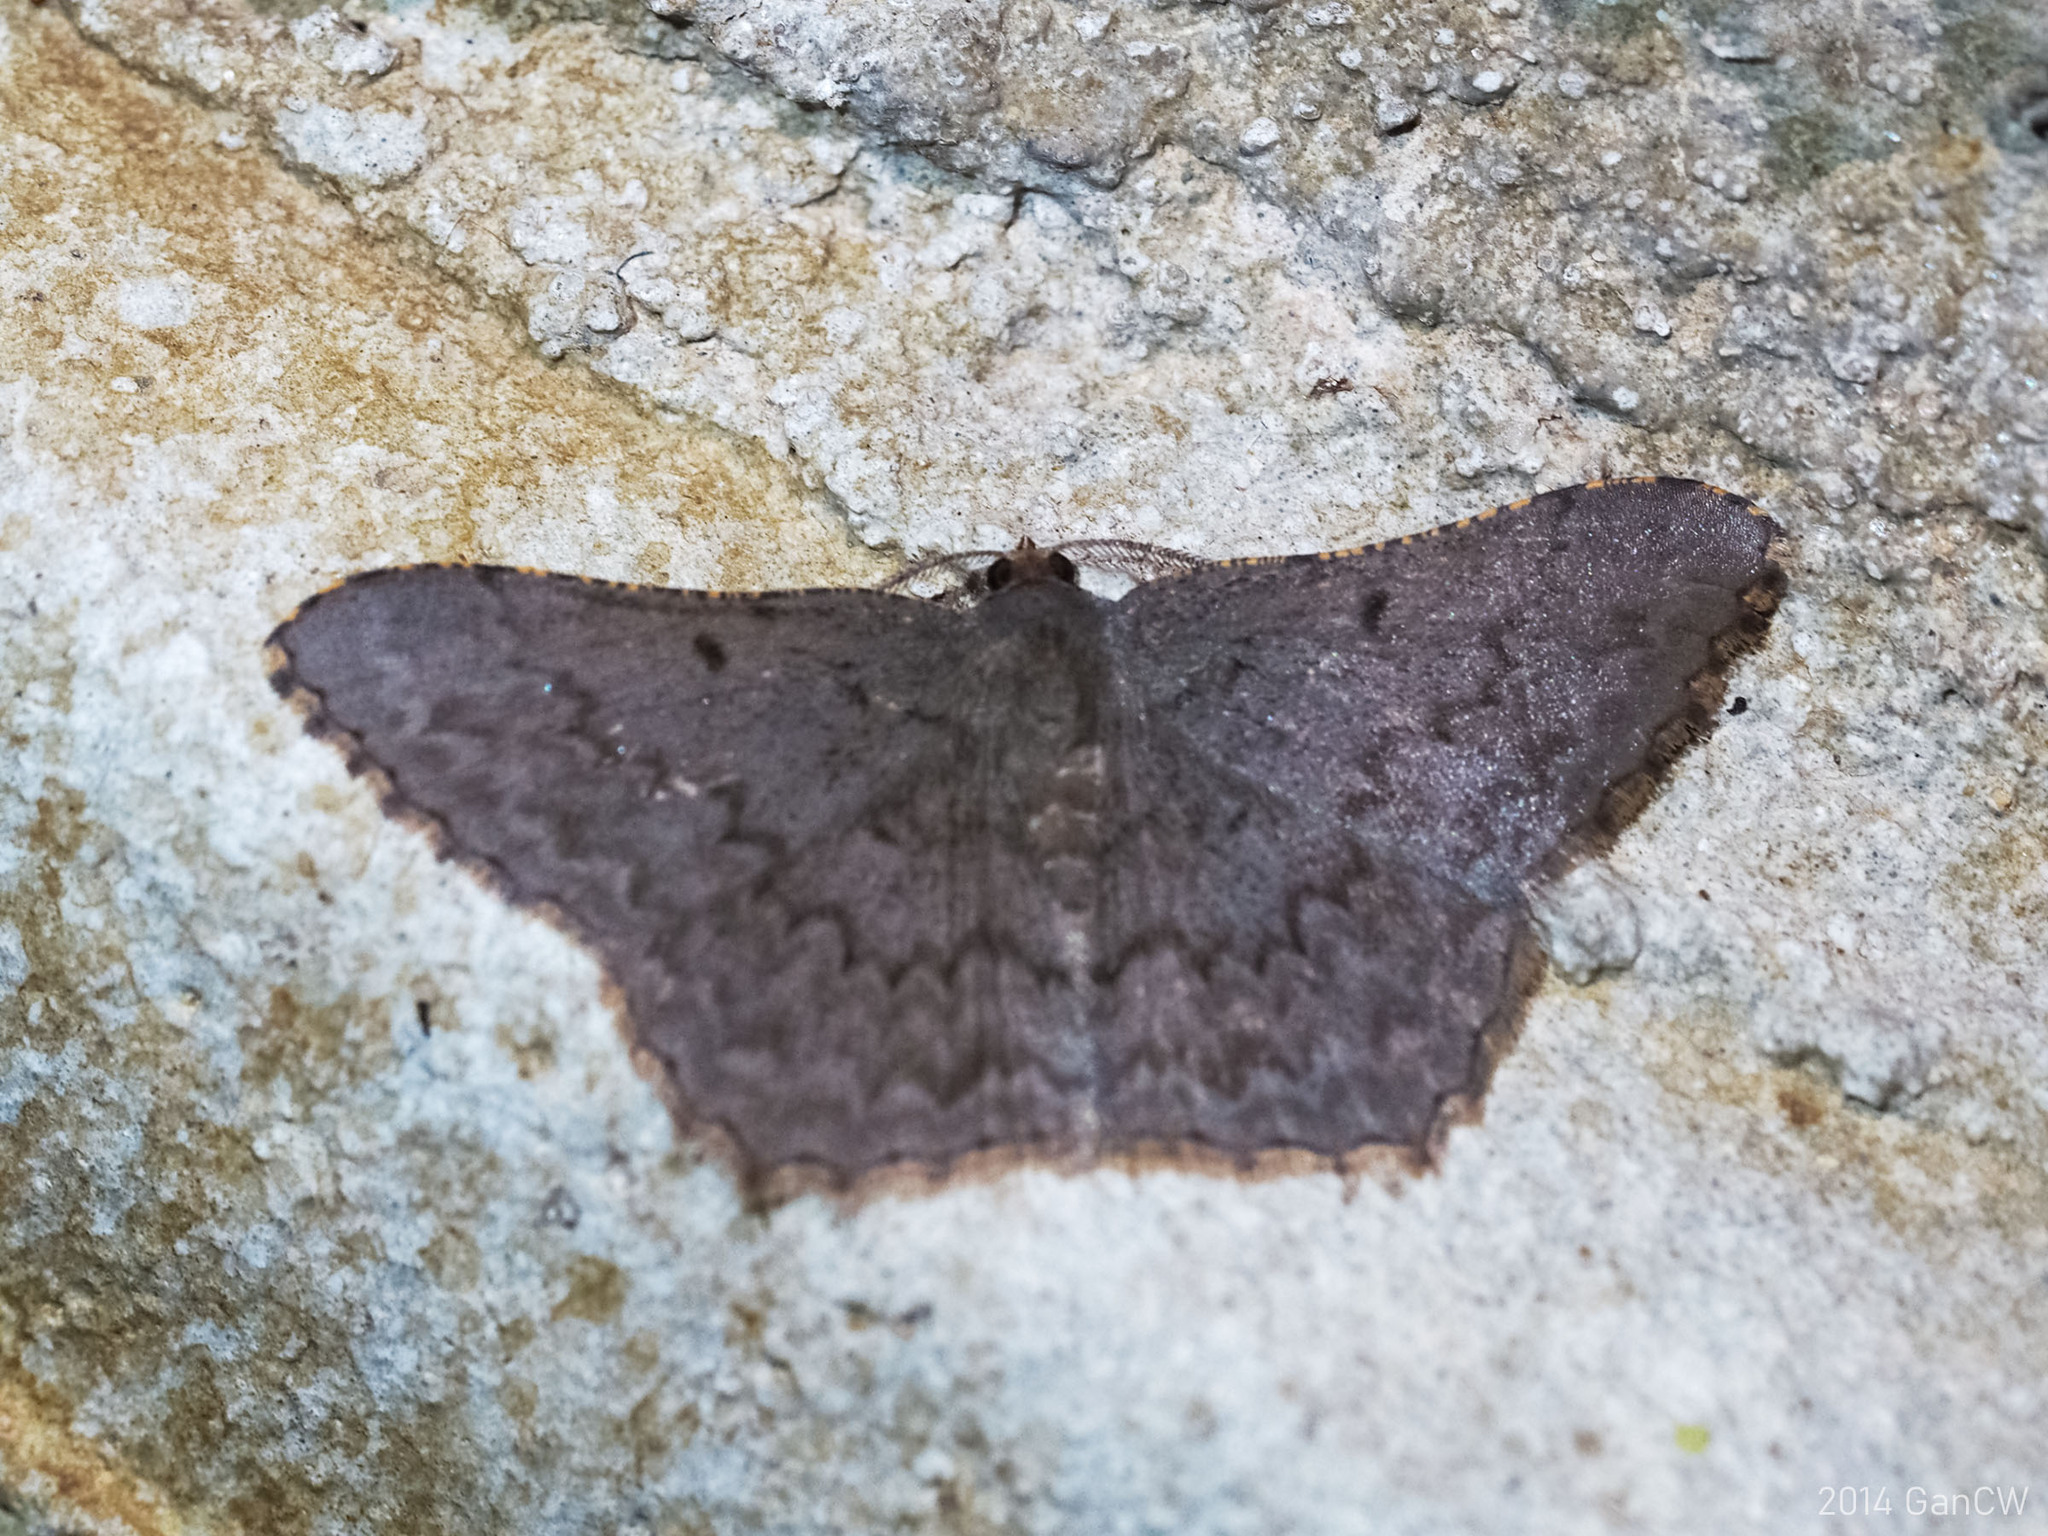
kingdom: Animalia
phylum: Arthropoda
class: Insecta
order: Lepidoptera
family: Geometridae
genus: Calletaera
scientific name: Calletaera schistacea
